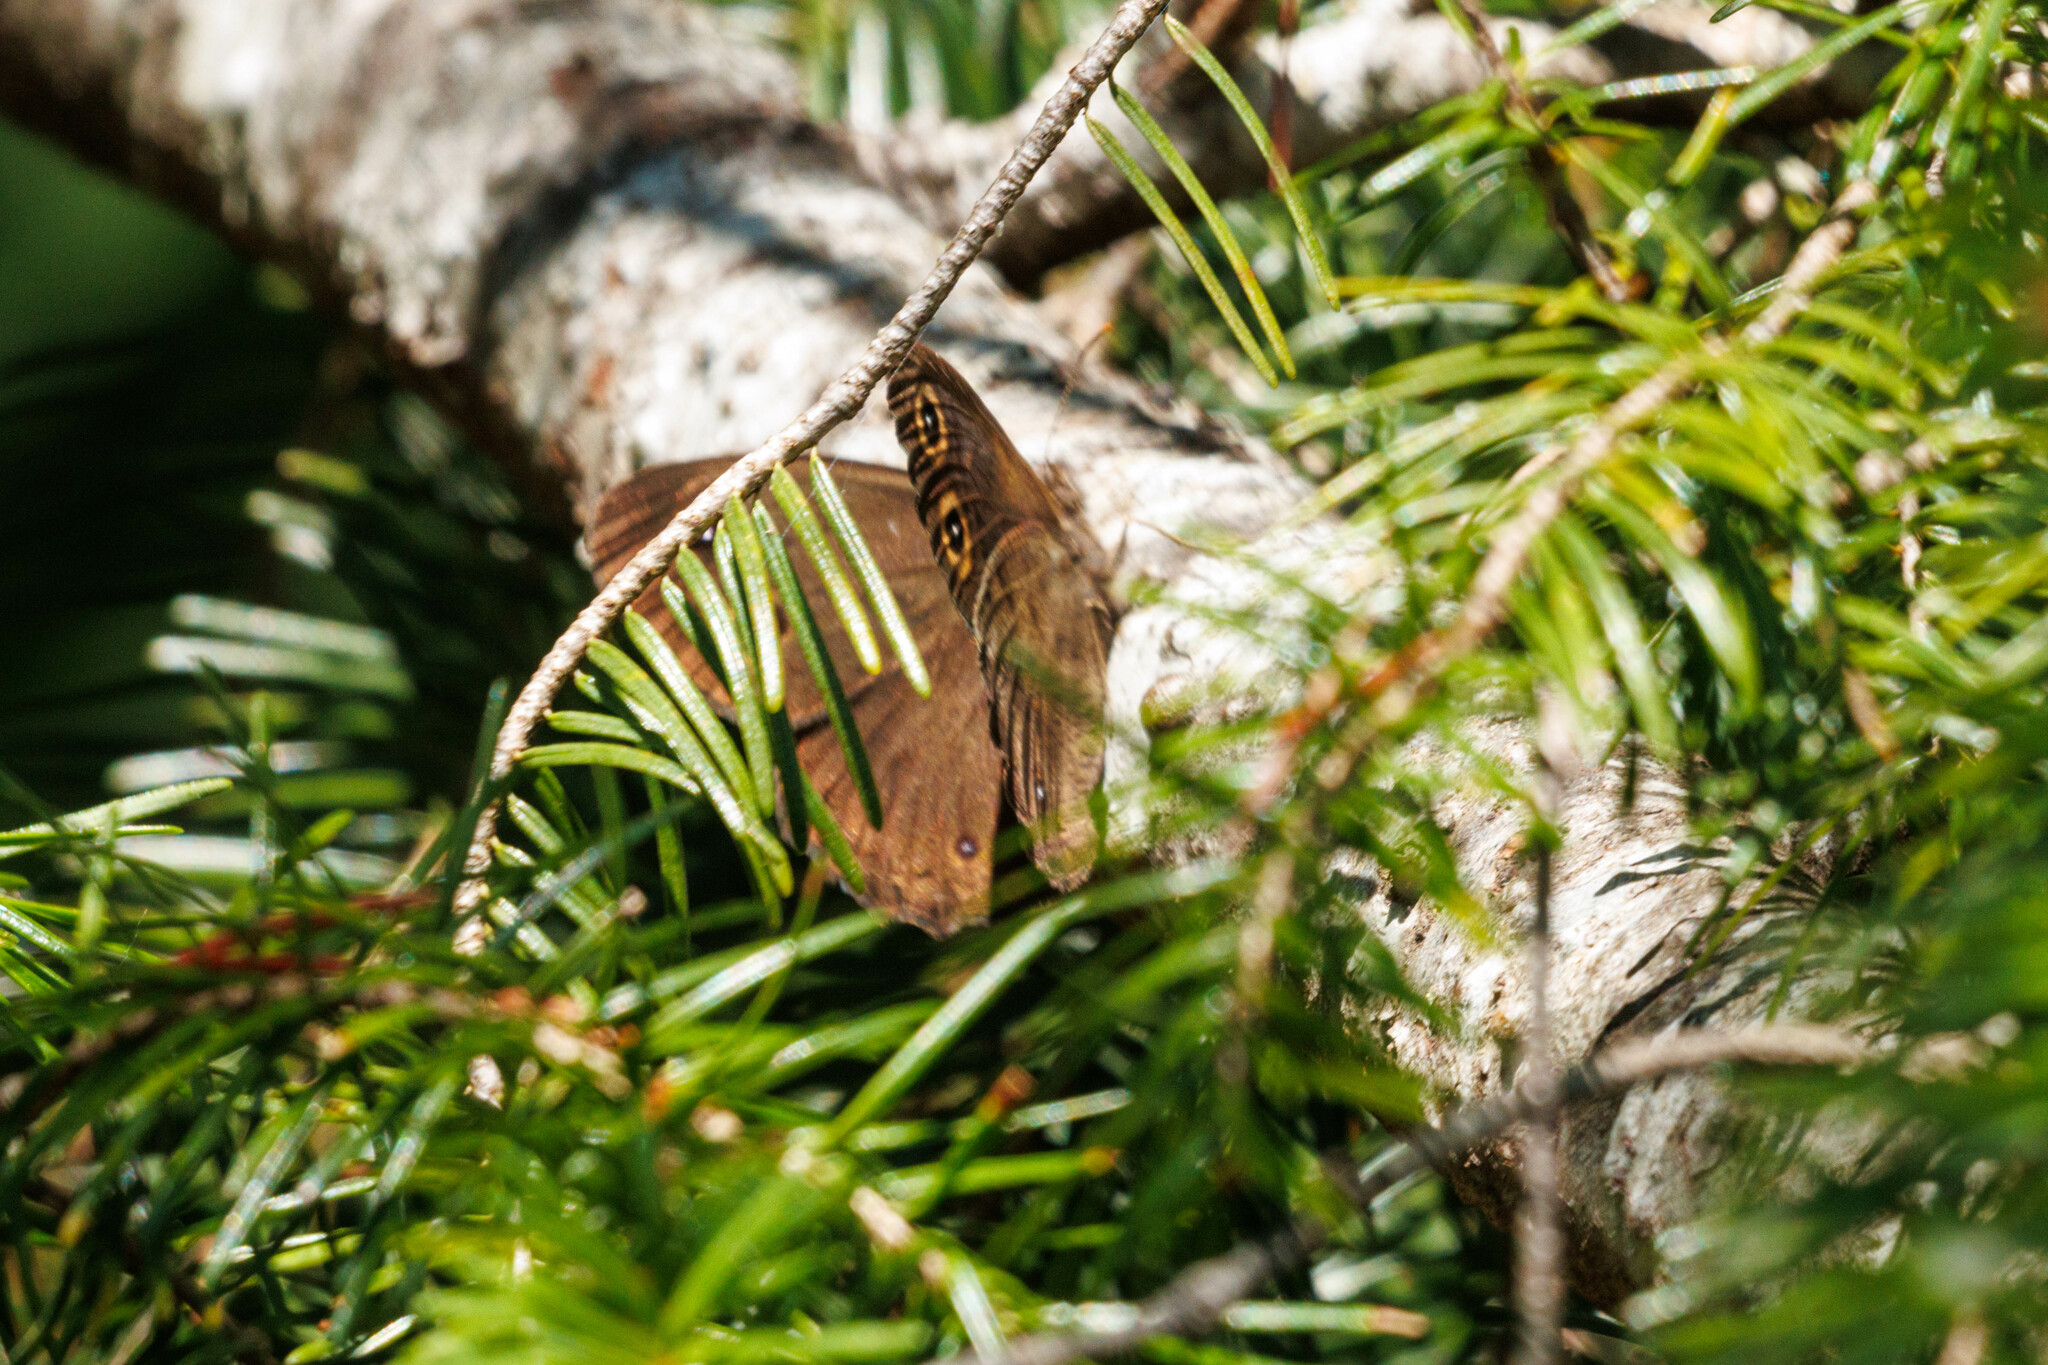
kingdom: Animalia
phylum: Arthropoda
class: Insecta
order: Lepidoptera
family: Nymphalidae
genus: Cercyonis
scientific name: Cercyonis pegala
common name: Common wood-nymph
